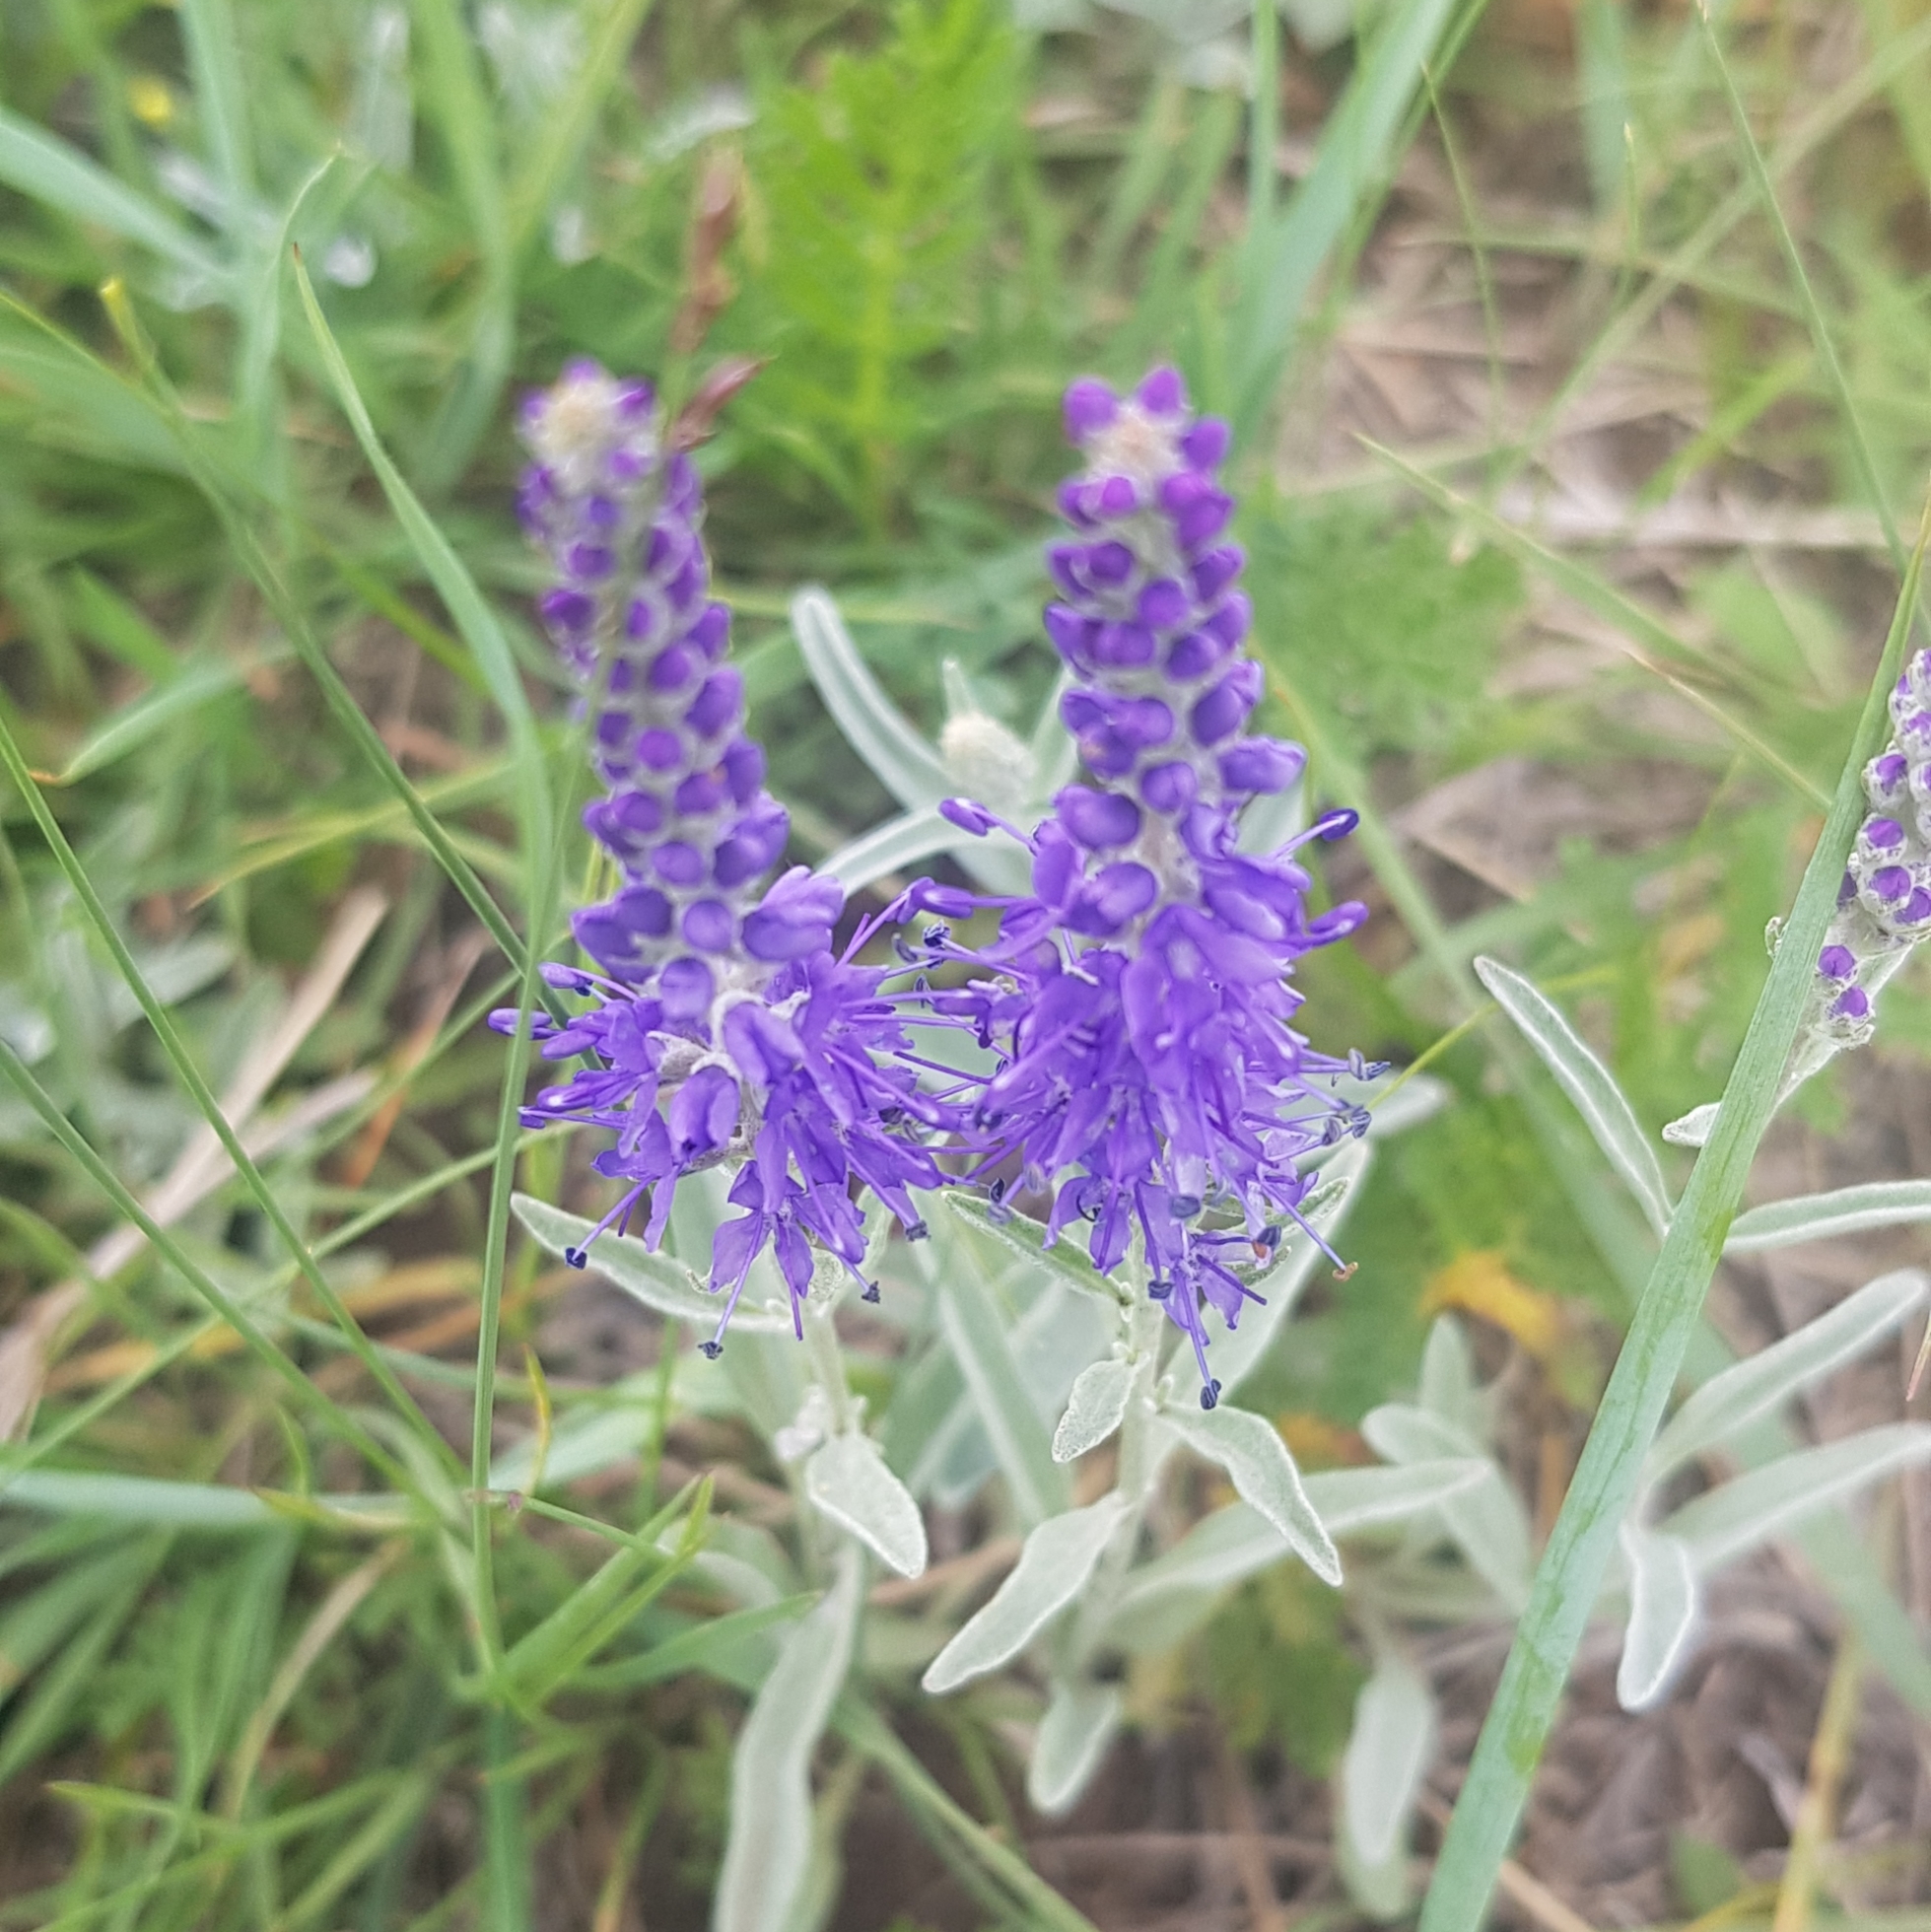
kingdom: Plantae
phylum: Tracheophyta
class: Magnoliopsida
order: Lamiales
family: Plantaginaceae
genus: Veronica
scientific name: Veronica incana
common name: Silver speedwell
